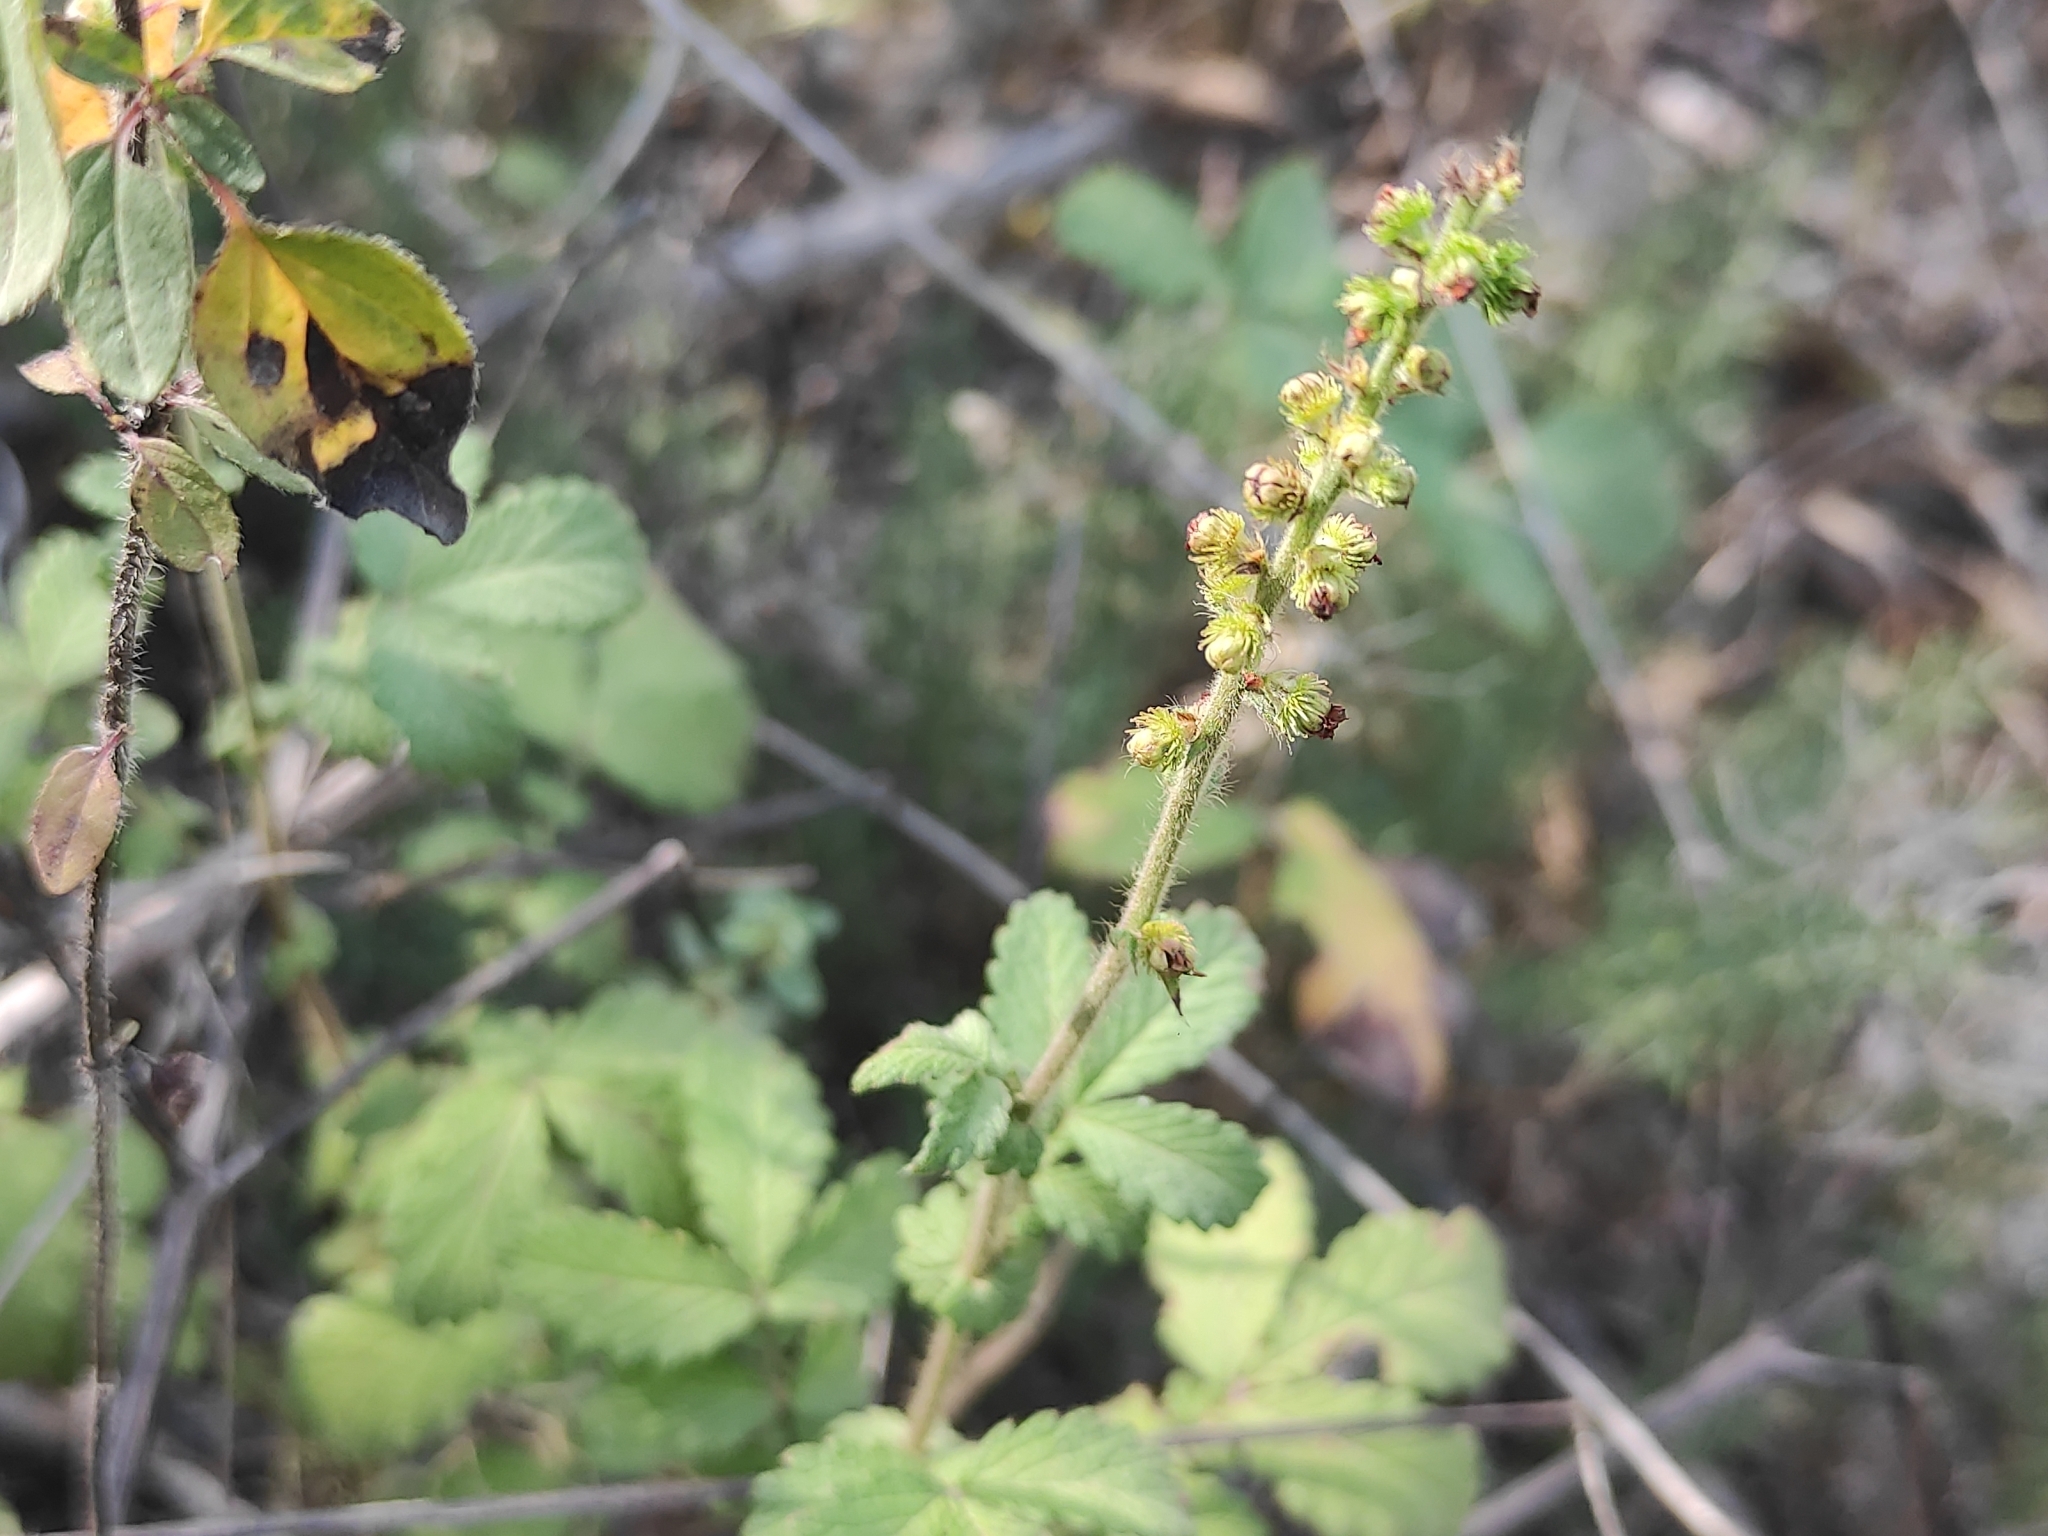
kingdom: Plantae
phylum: Tracheophyta
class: Magnoliopsida
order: Rosales
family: Rosaceae
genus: Agrimonia
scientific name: Agrimonia eupatoria
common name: Agrimony
